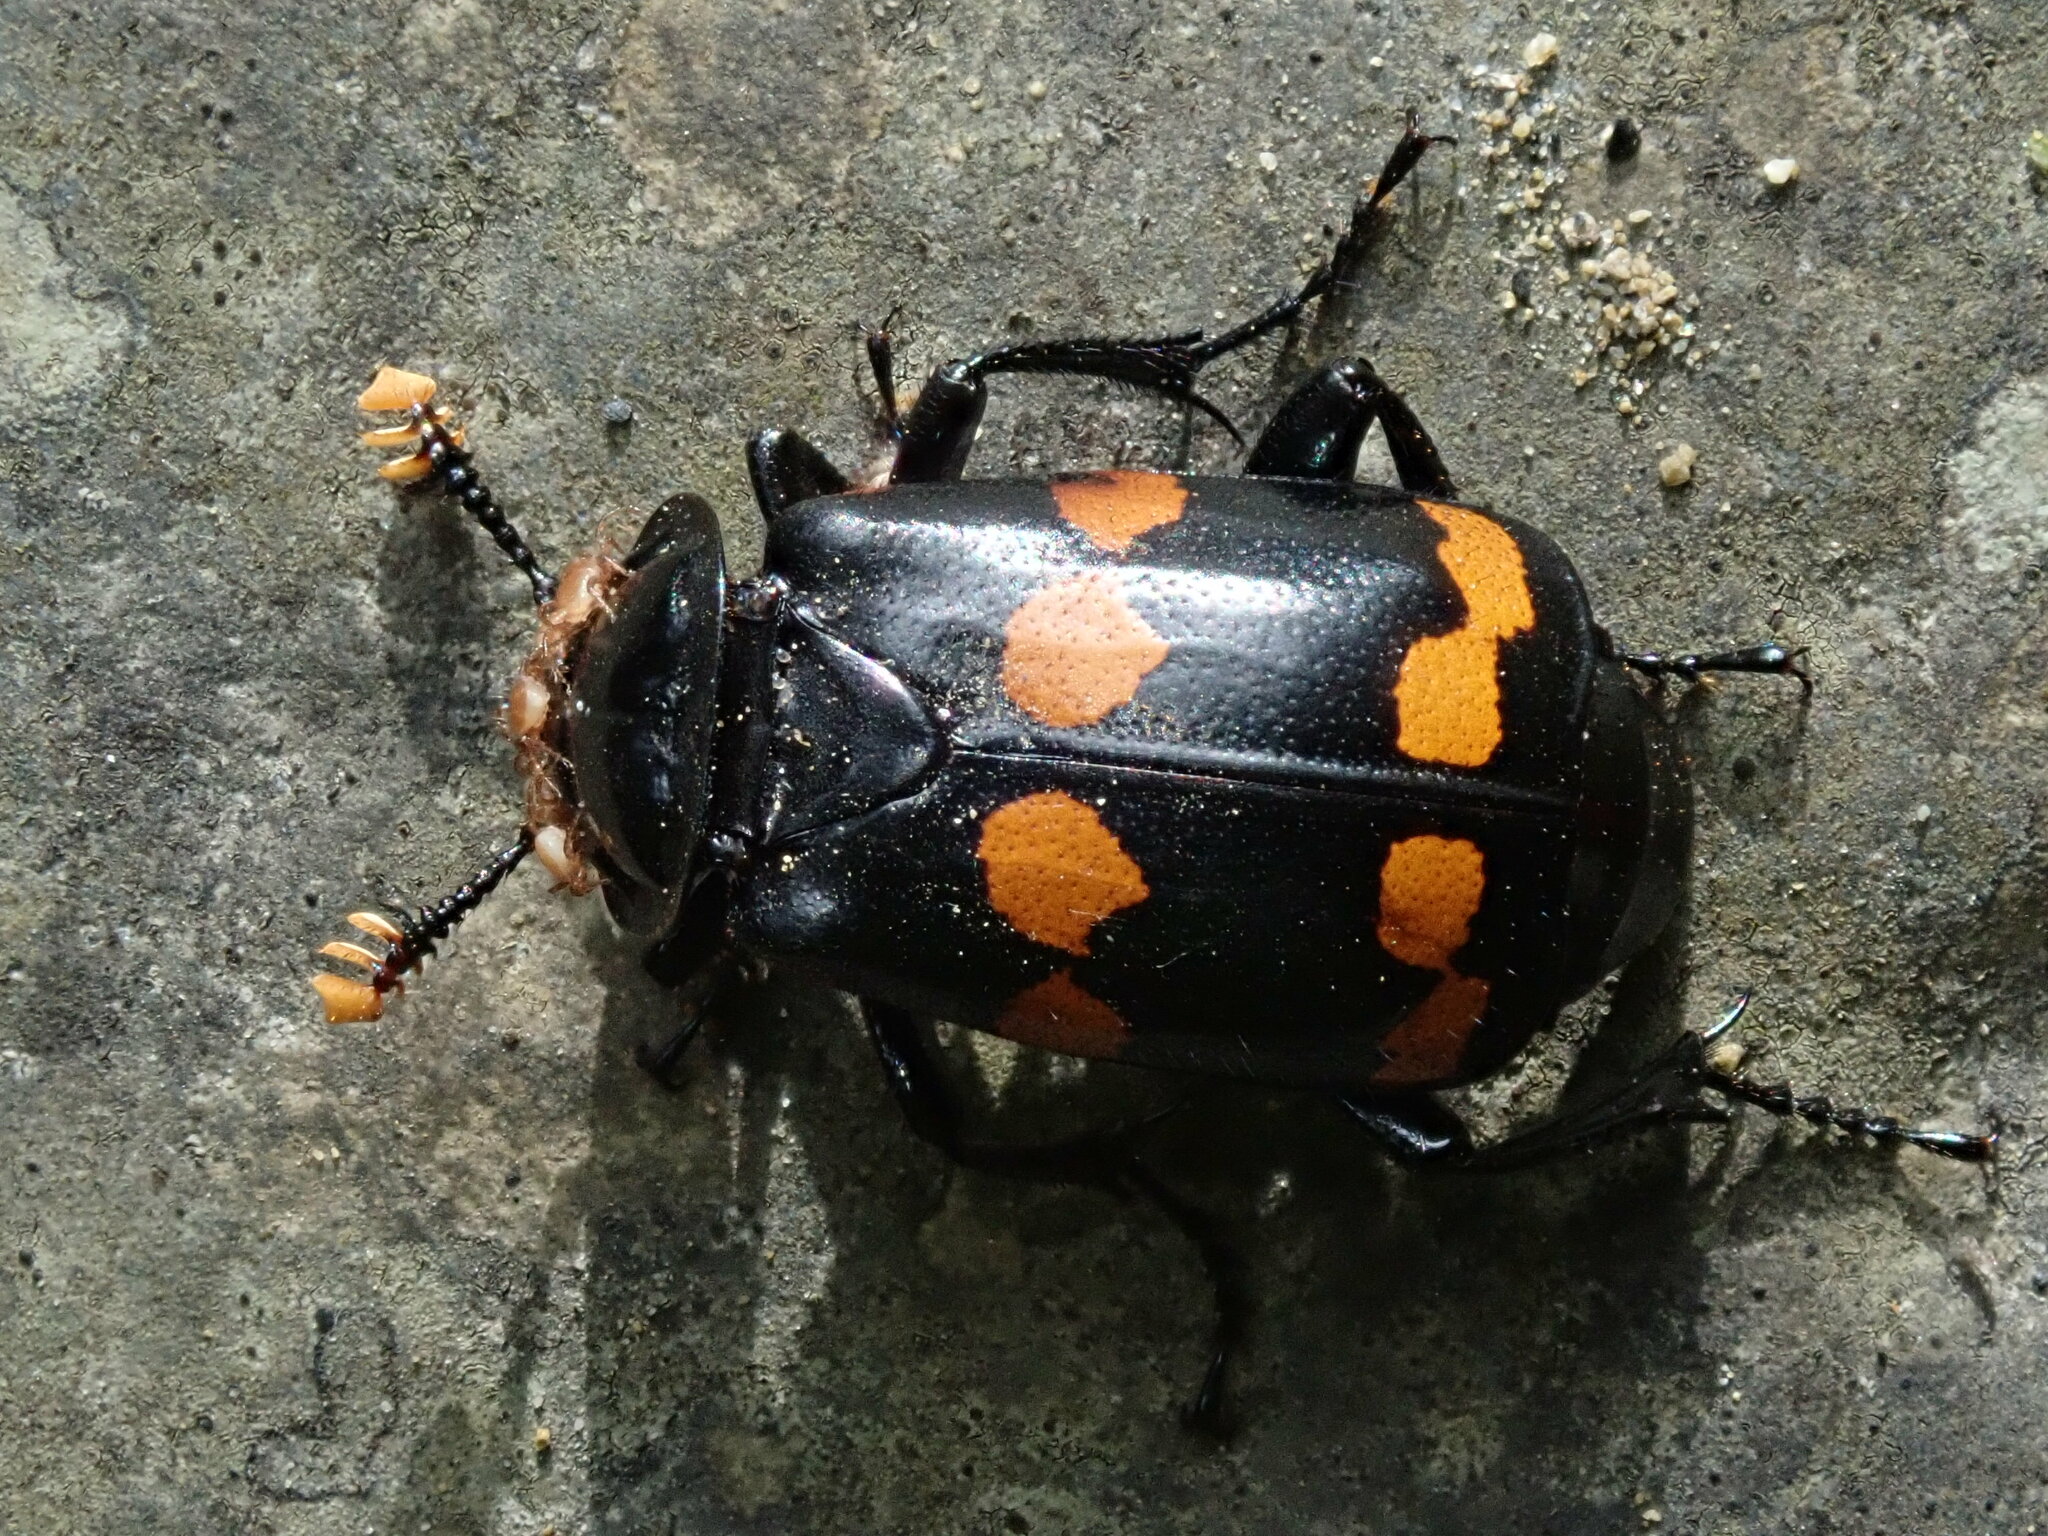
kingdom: Animalia
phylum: Arthropoda
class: Insecta
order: Coleoptera
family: Staphylinidae
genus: Nicrophorus
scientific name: Nicrophorus didymus
